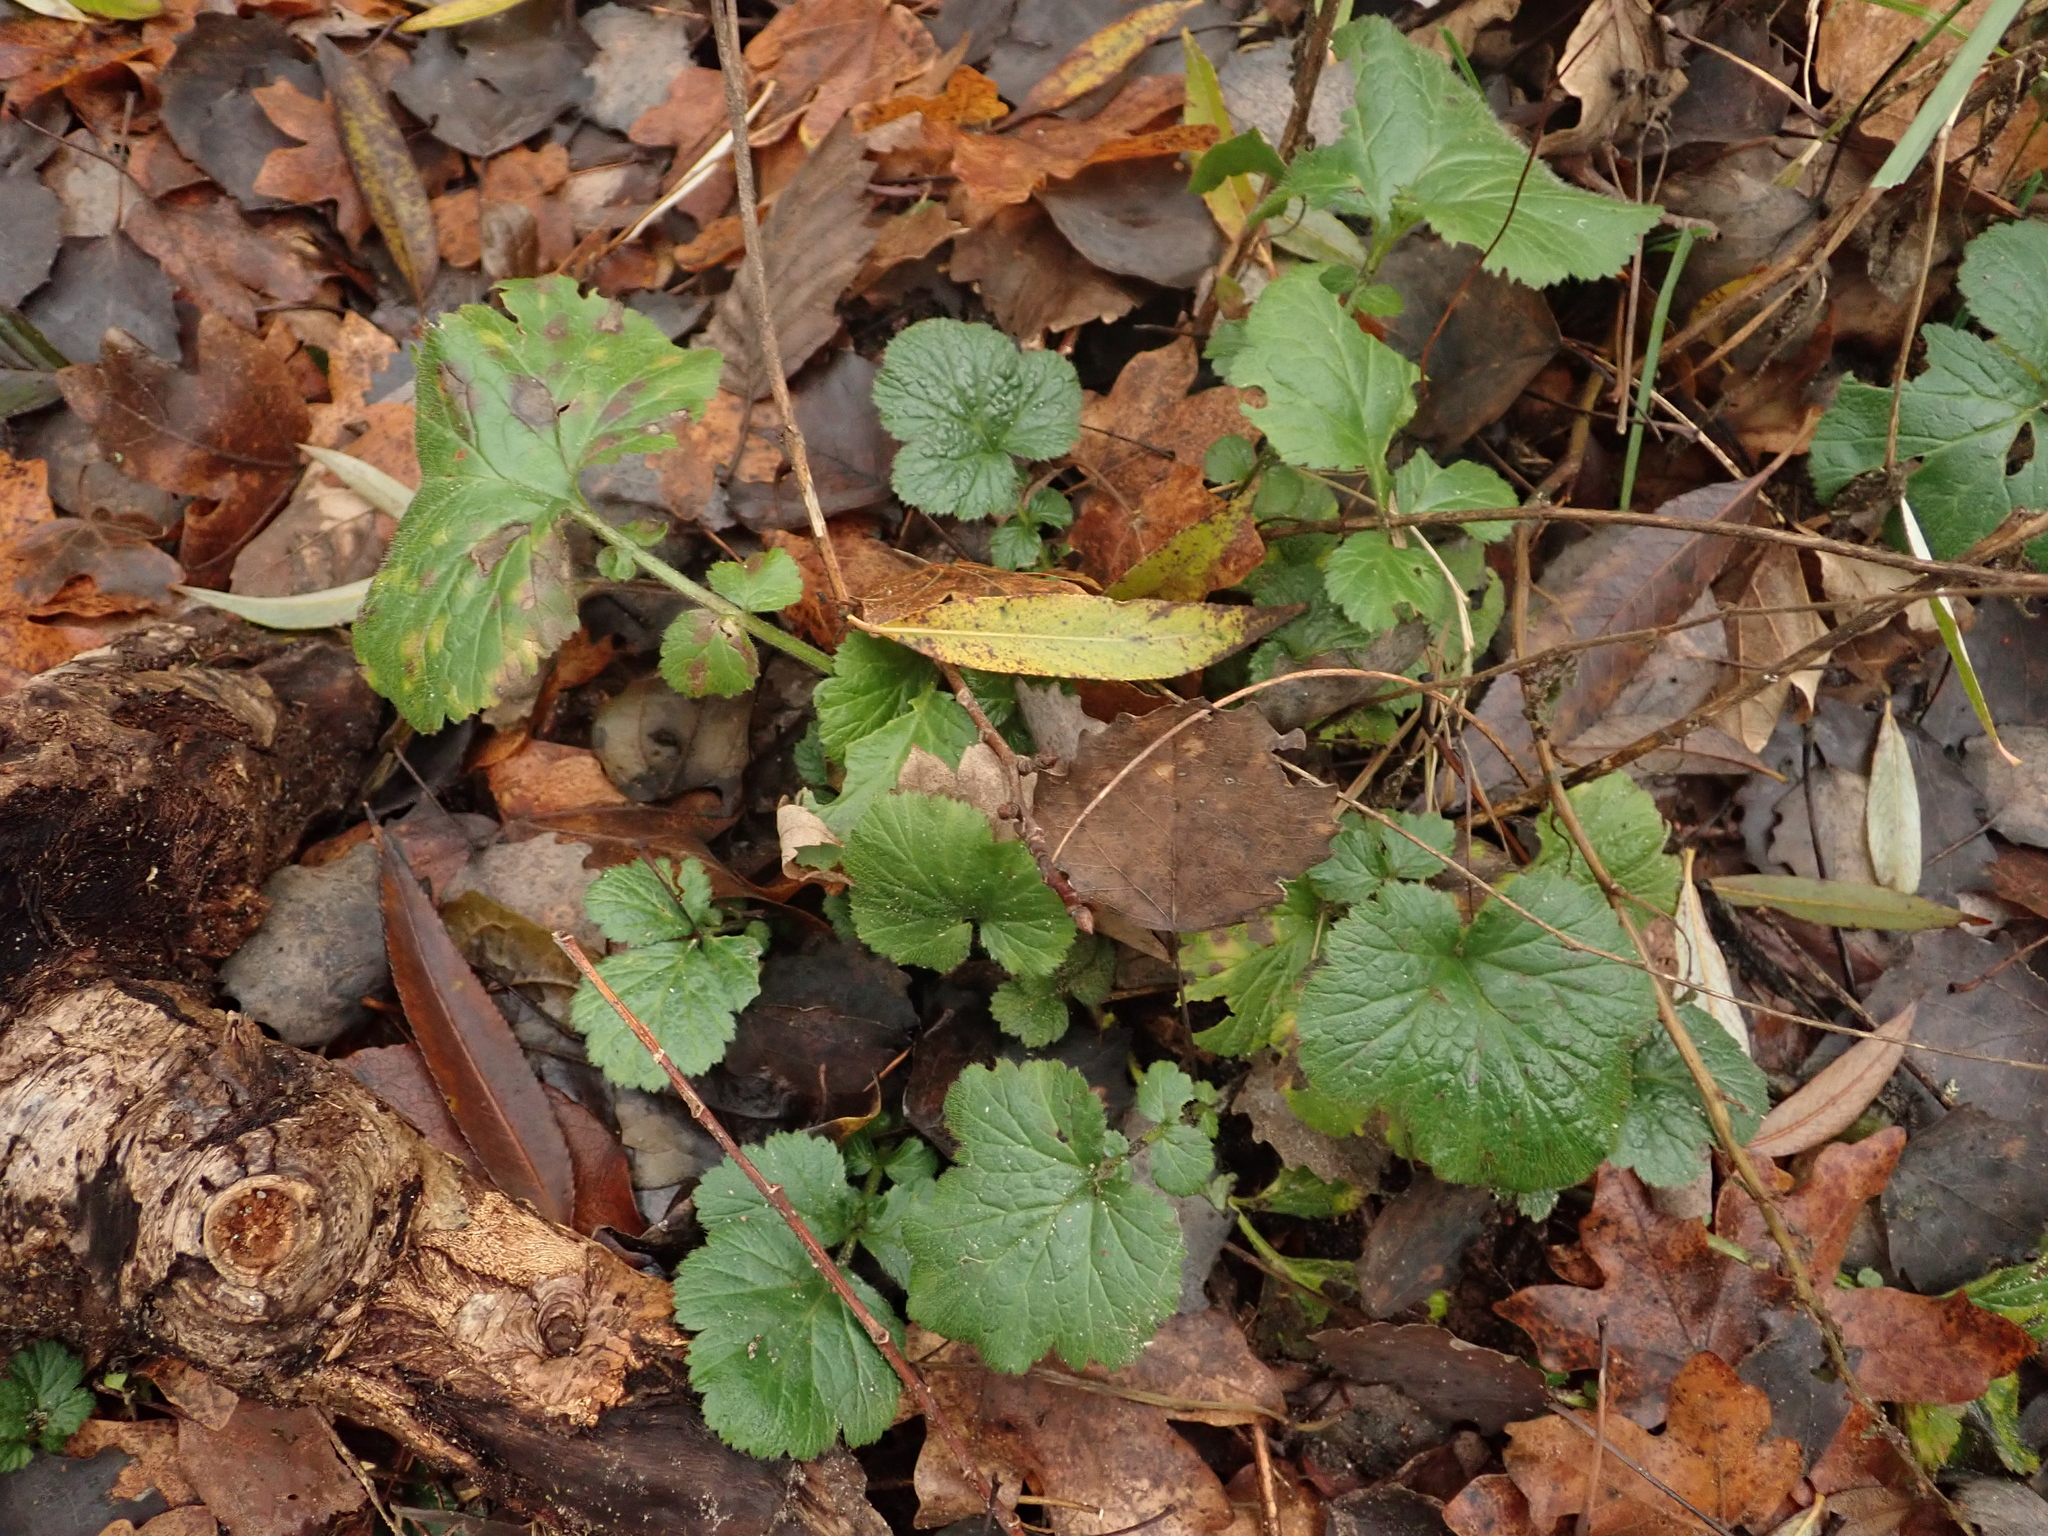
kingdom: Plantae
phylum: Tracheophyta
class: Magnoliopsida
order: Rosales
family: Rosaceae
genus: Geum
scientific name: Geum urbanum
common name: Wood avens
